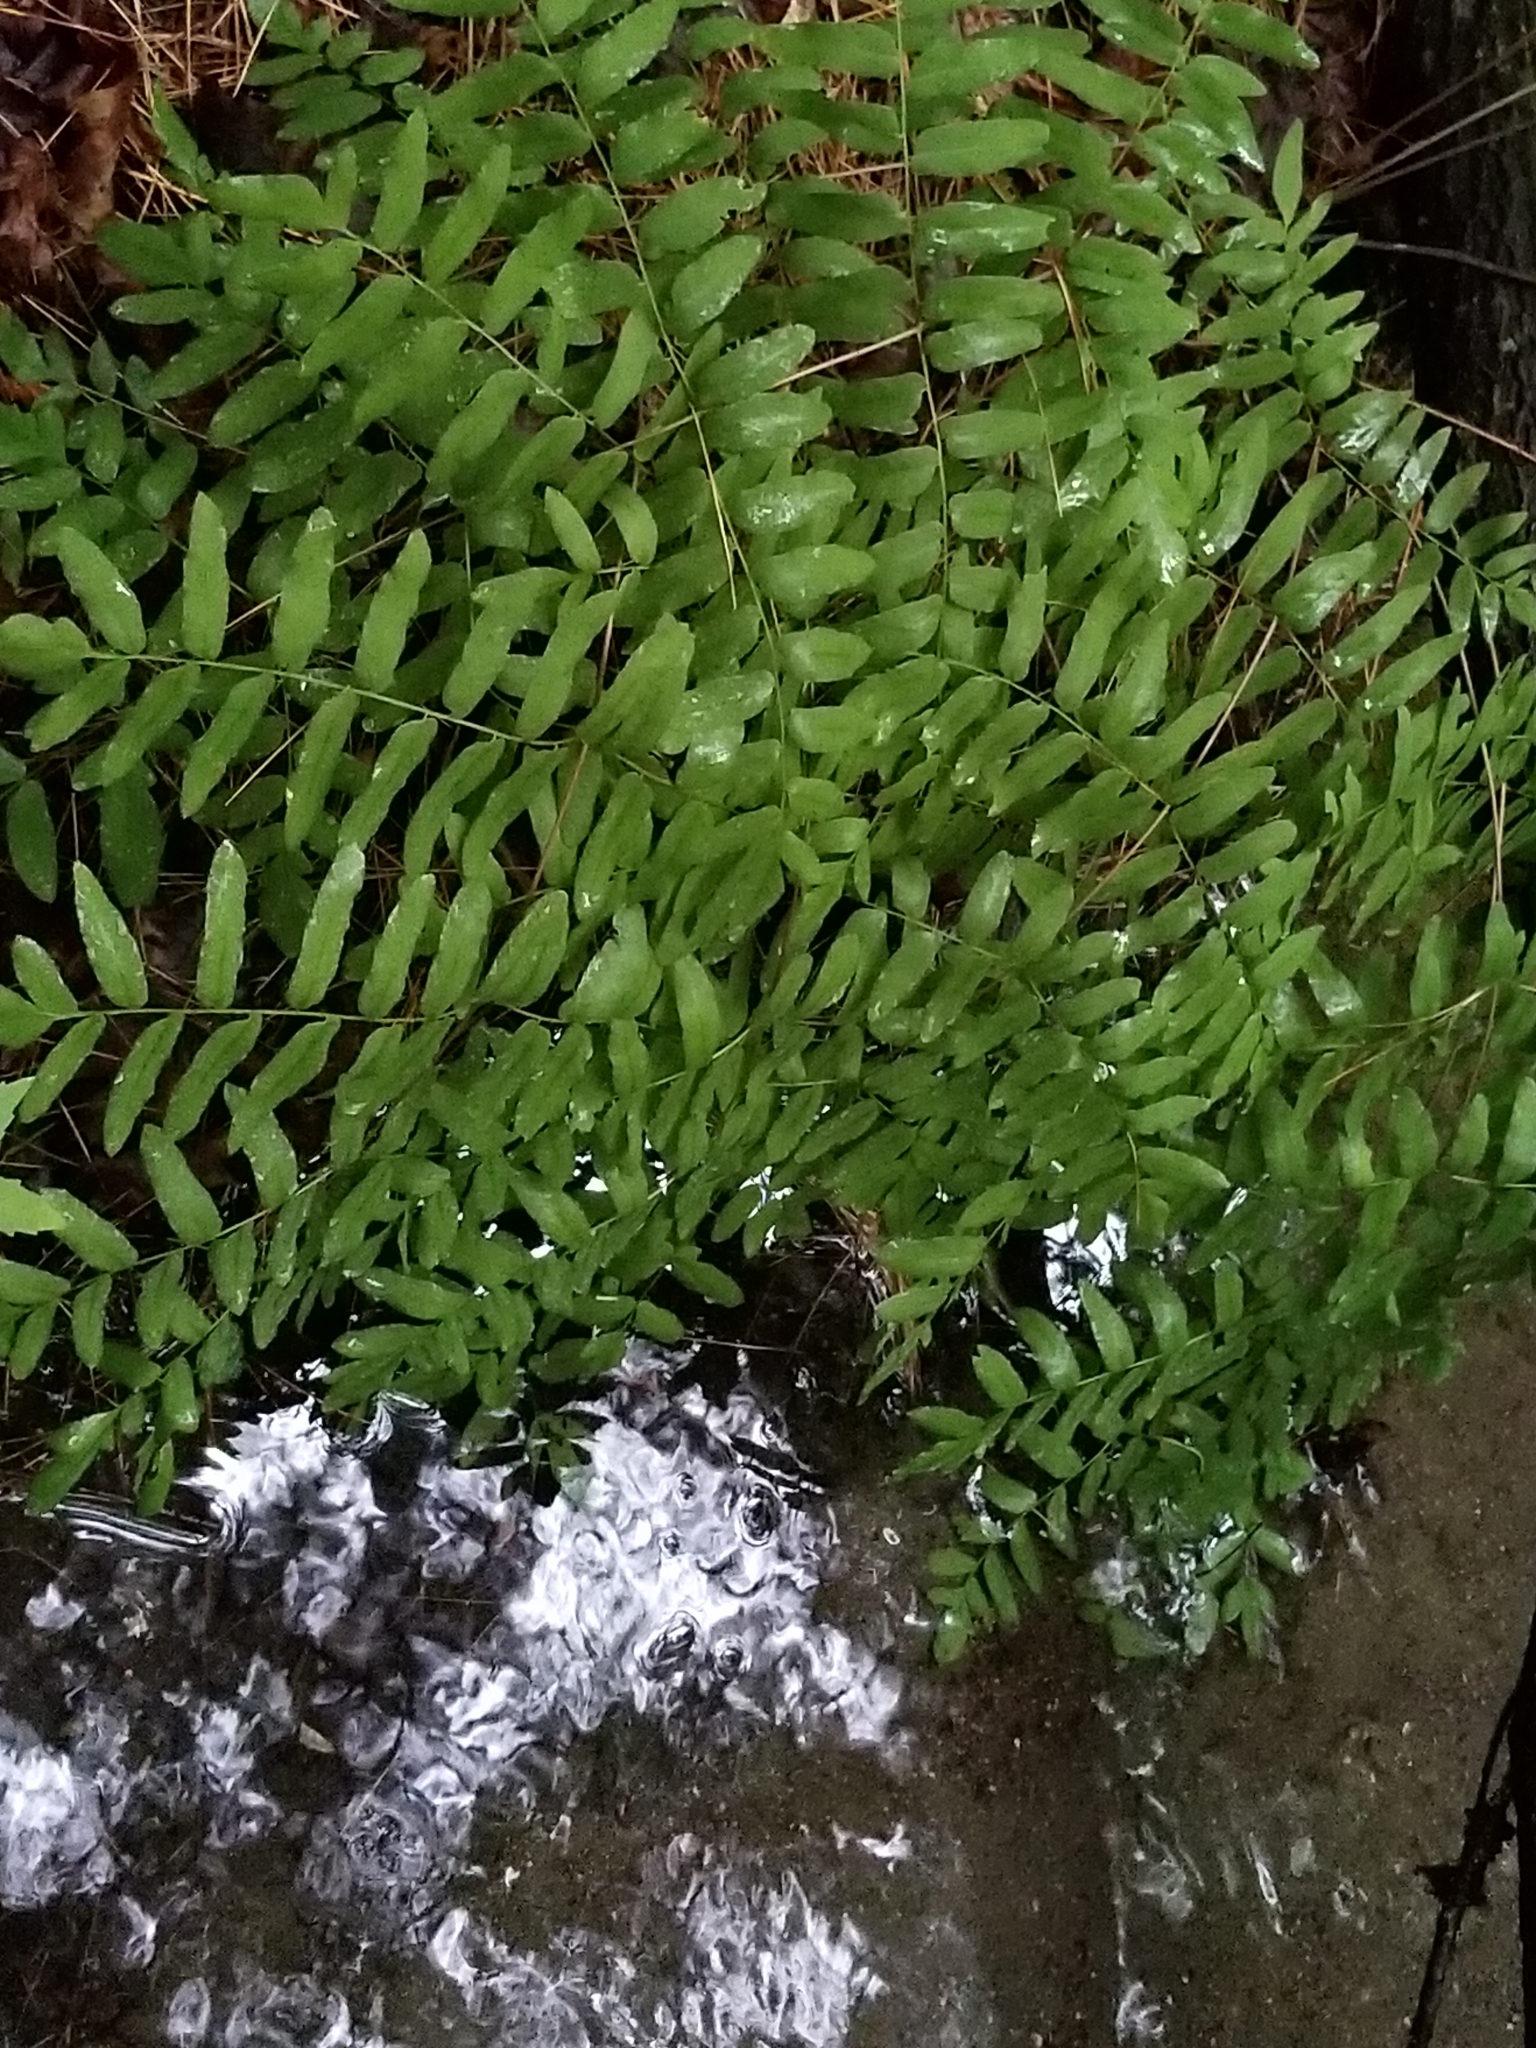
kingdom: Plantae
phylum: Tracheophyta
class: Polypodiopsida
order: Osmundales
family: Osmundaceae
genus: Osmunda
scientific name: Osmunda spectabilis
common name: American royal fern
